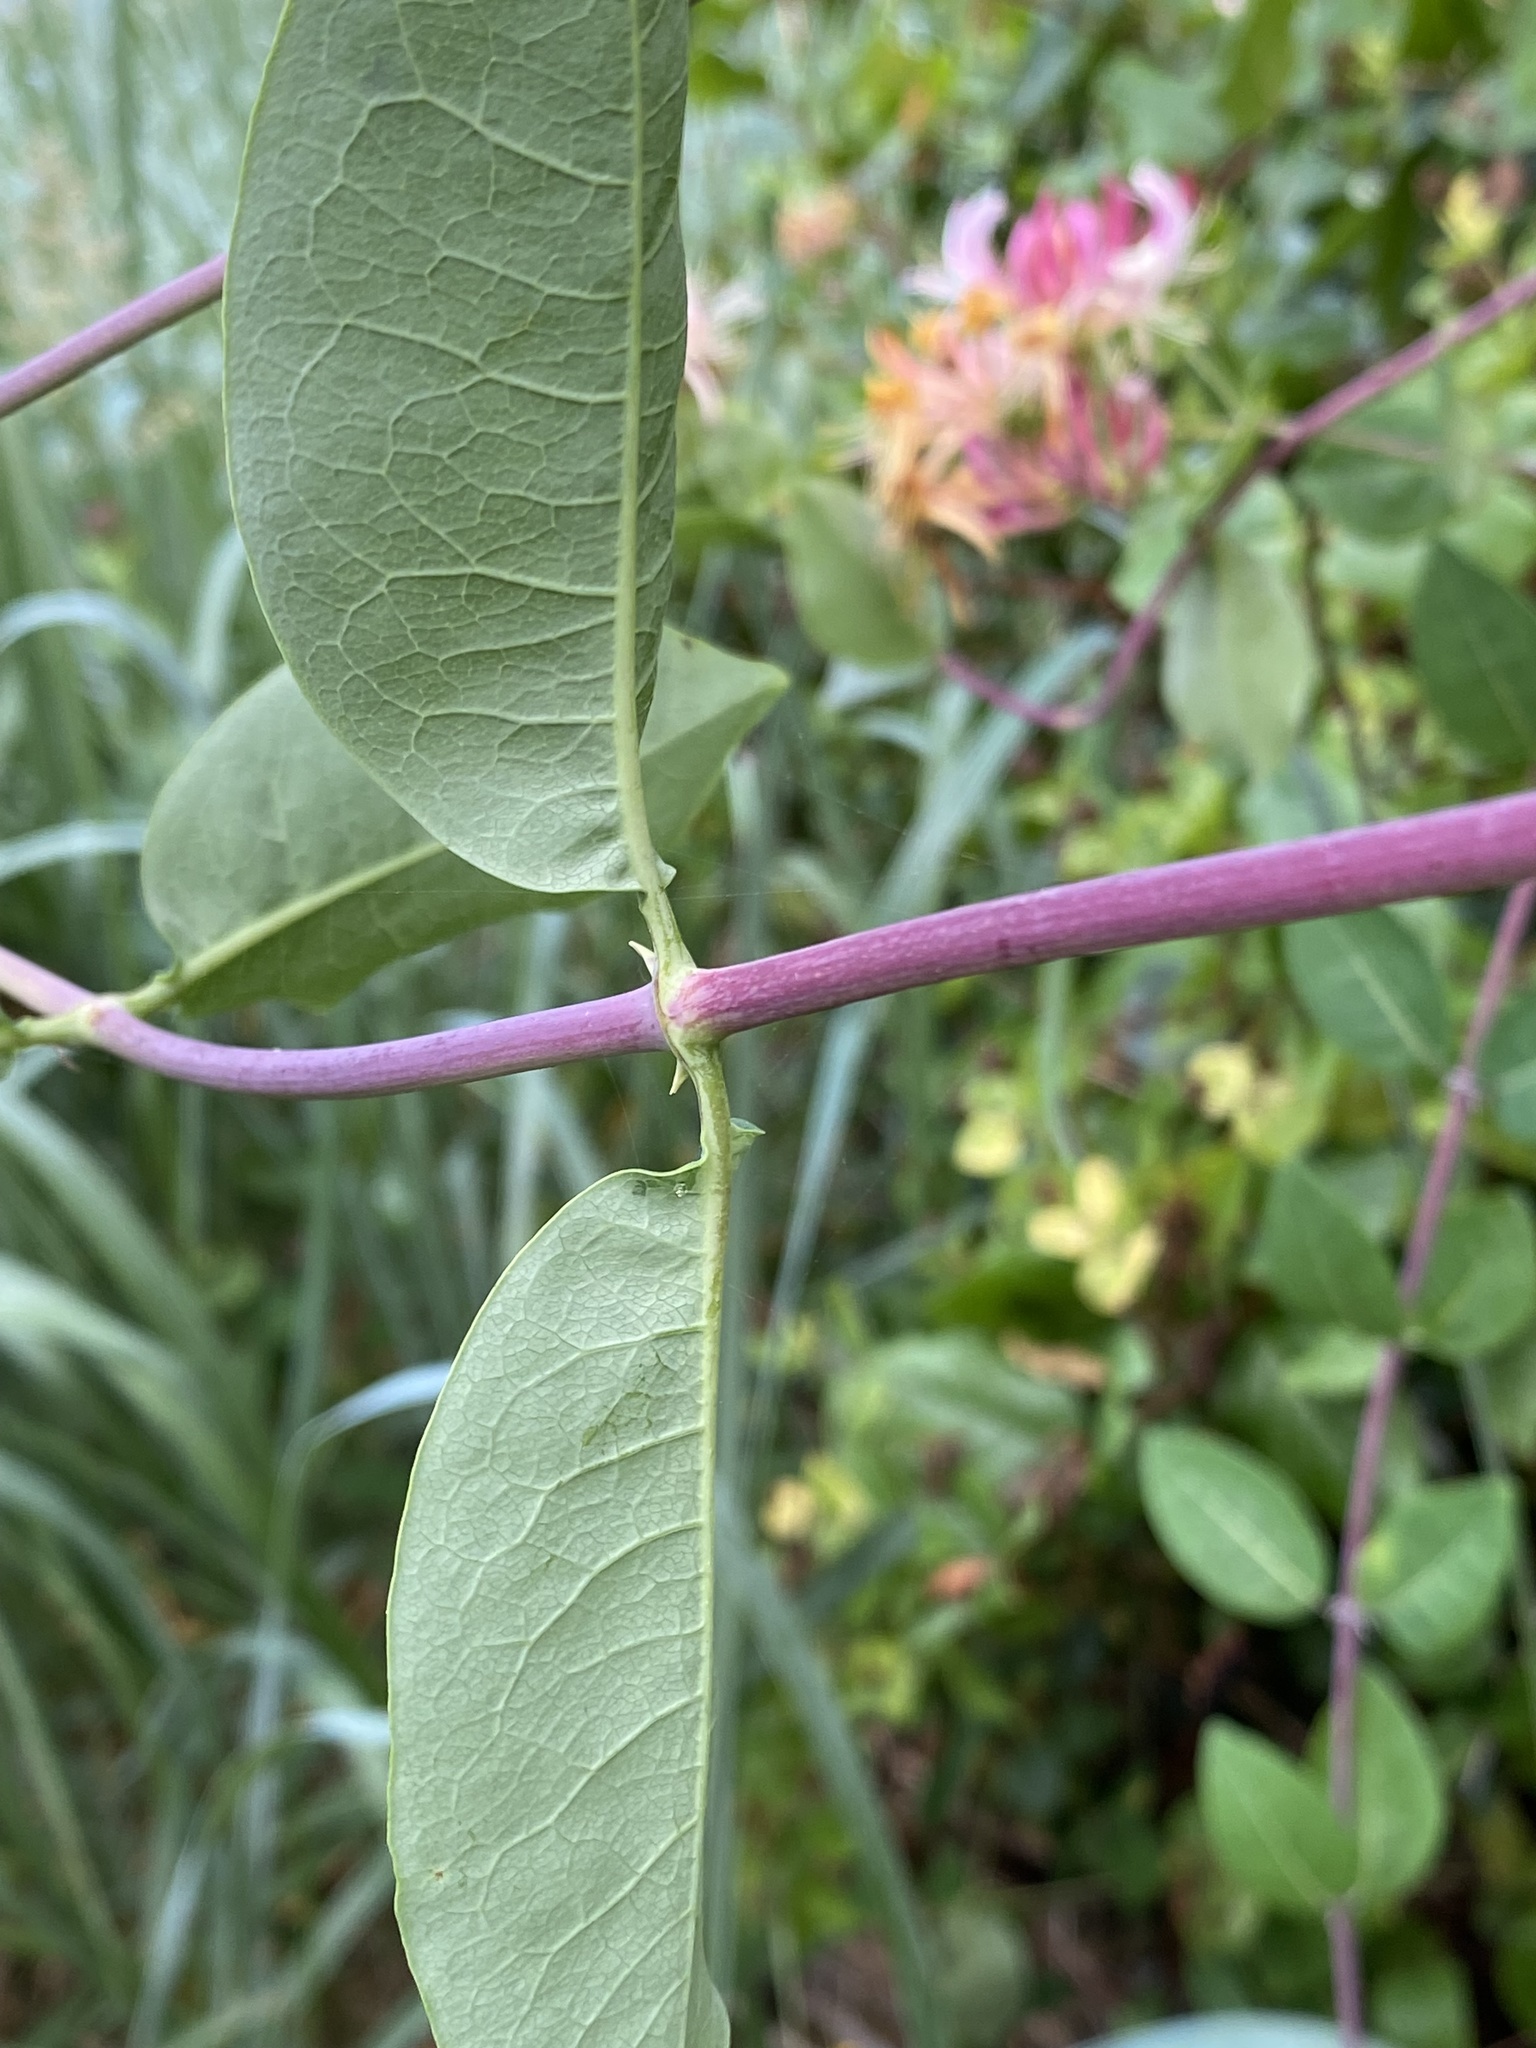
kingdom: Plantae
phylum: Tracheophyta
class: Magnoliopsida
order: Dipsacales
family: Caprifoliaceae
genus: Lonicera
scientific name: Lonicera periclymenum
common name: European honeysuckle
